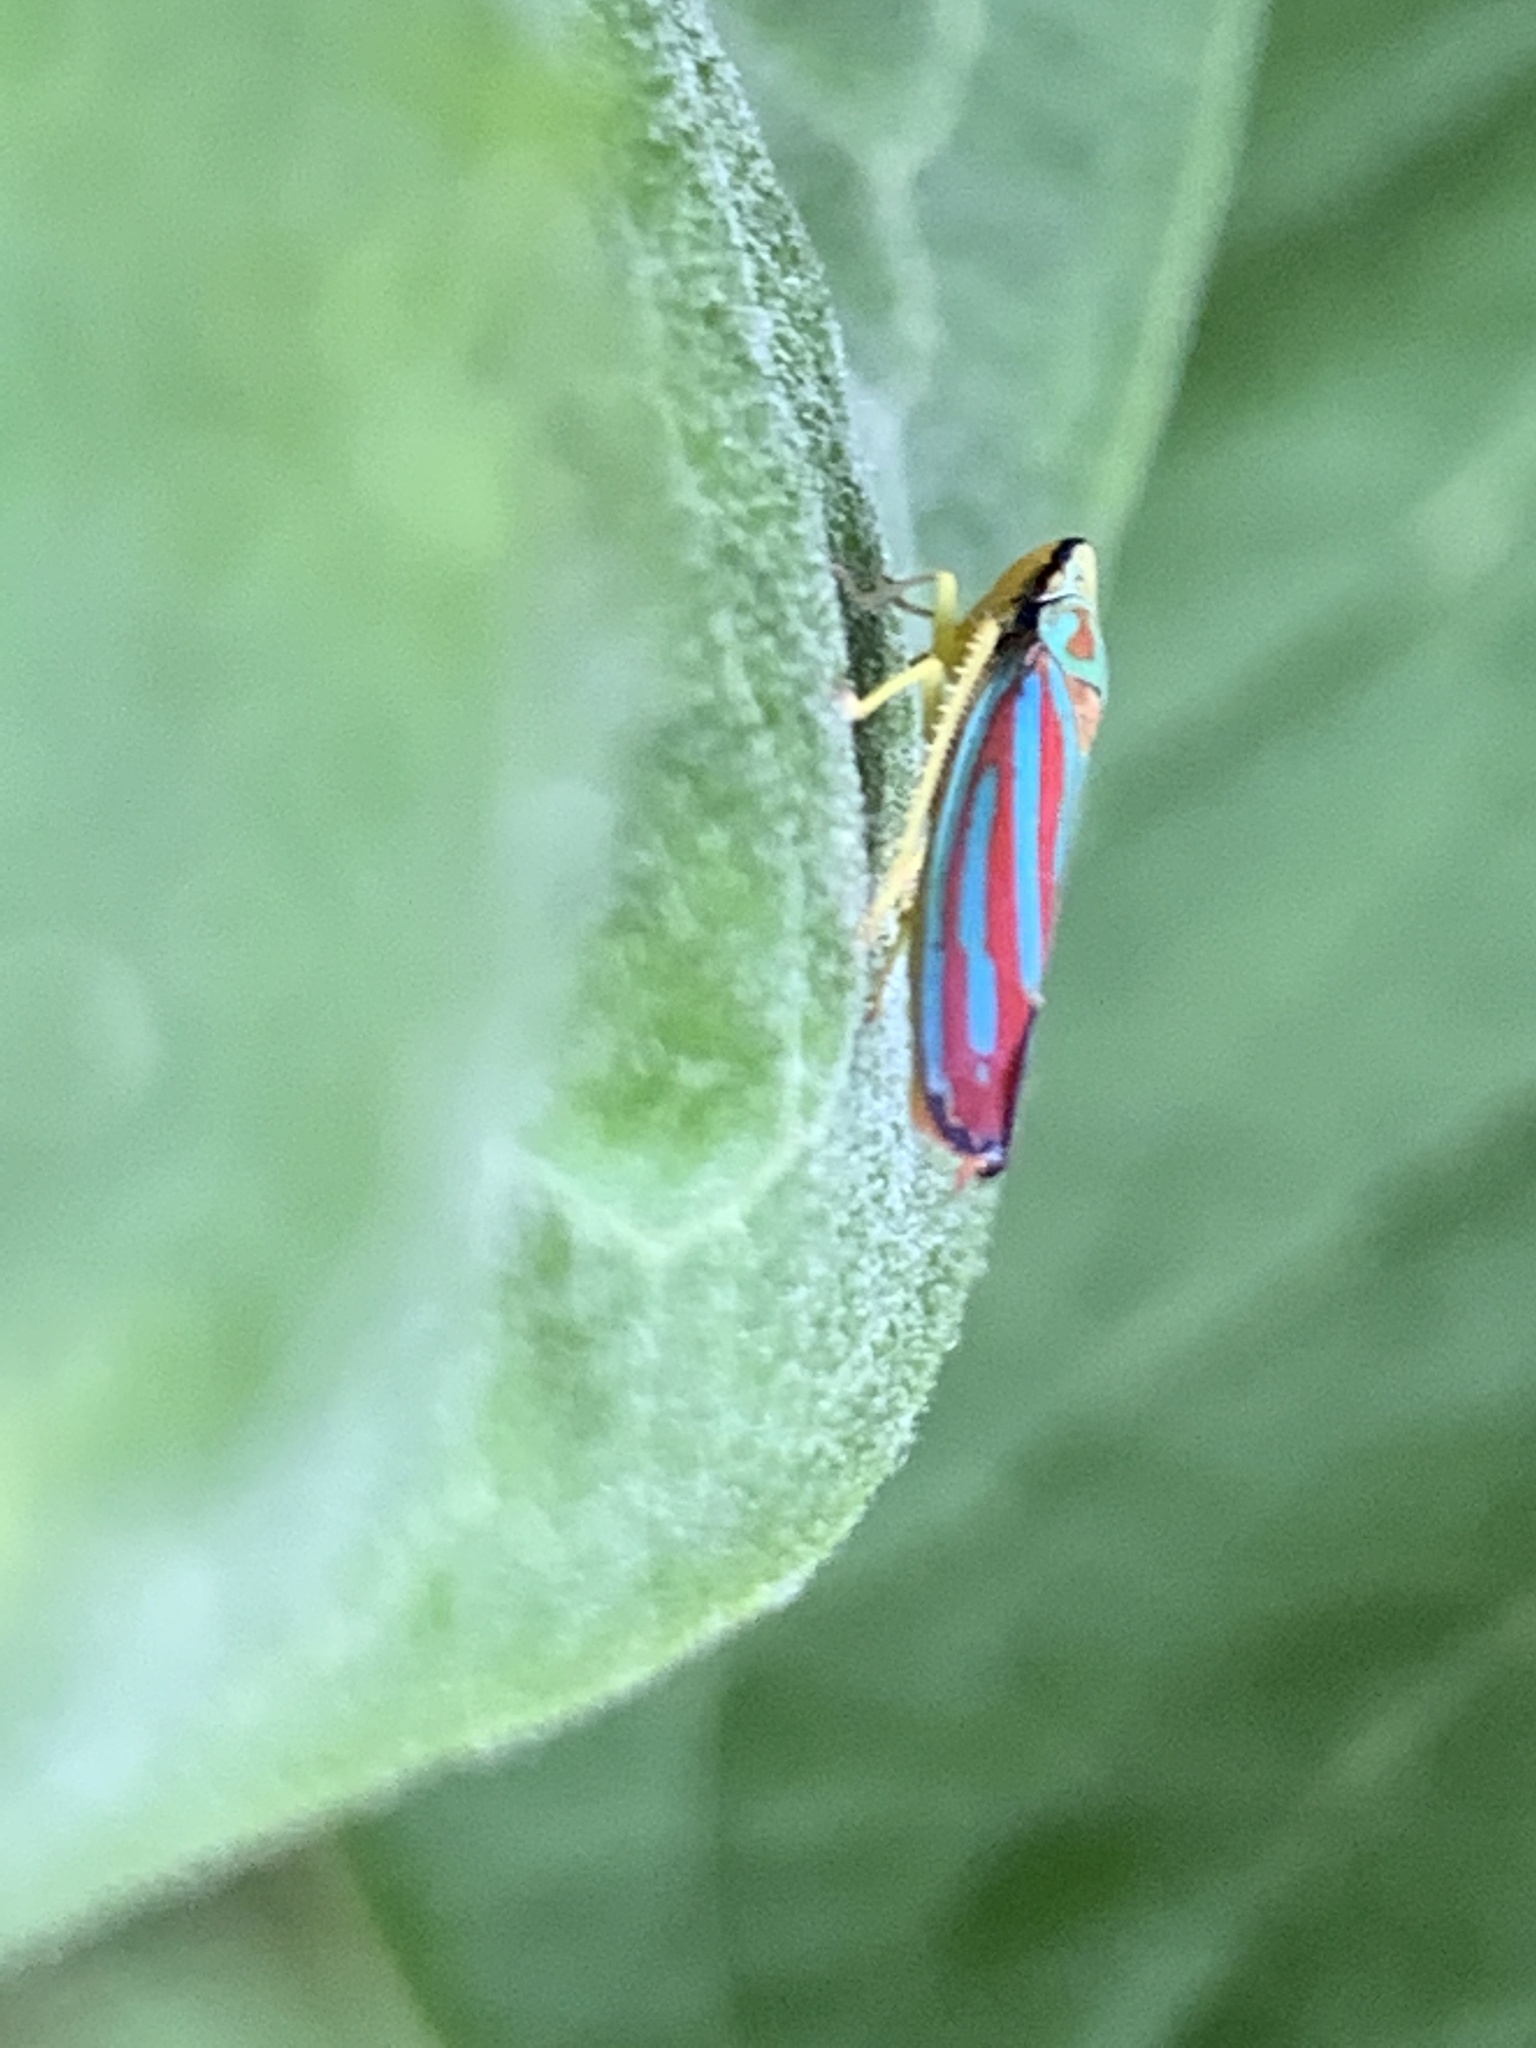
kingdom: Animalia
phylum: Arthropoda
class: Insecta
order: Hemiptera
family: Cicadellidae
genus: Graphocephala
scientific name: Graphocephala coccinea
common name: Candy-striped leafhopper
